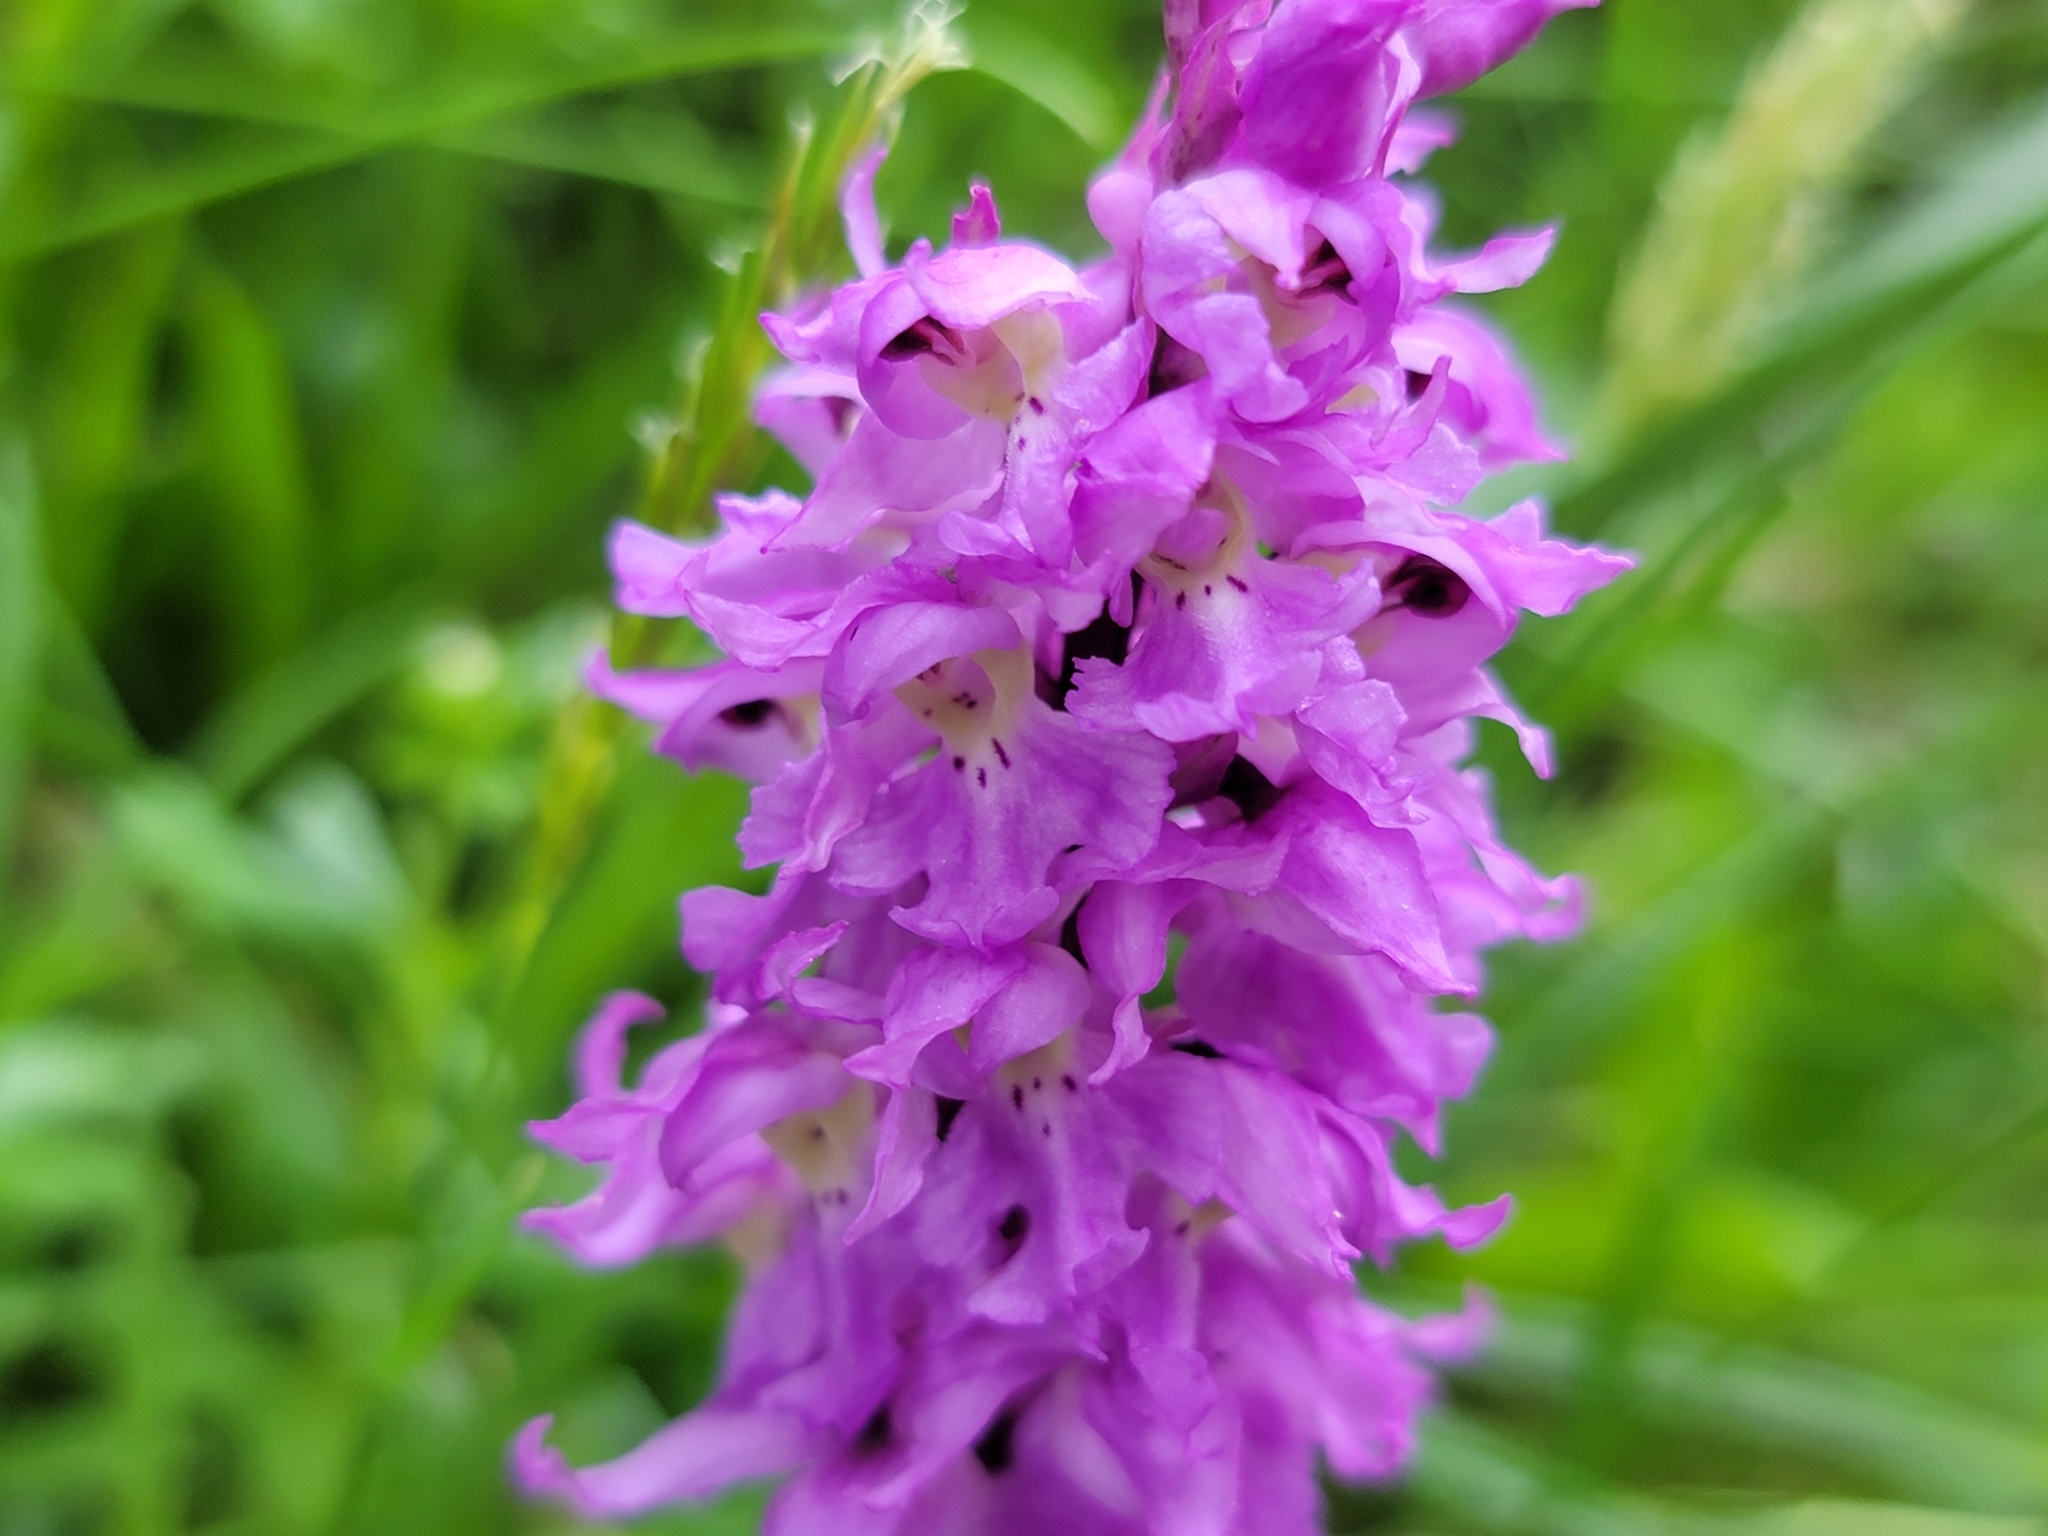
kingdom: Plantae
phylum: Tracheophyta
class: Liliopsida
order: Asparagales
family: Orchidaceae
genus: Orchis
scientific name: Orchis mascula
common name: Early-purple orchid
